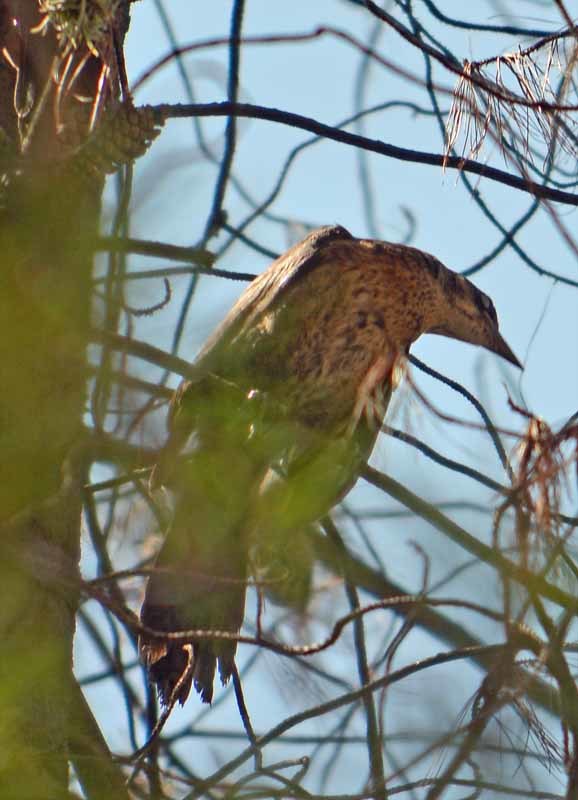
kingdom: Animalia
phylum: Chordata
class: Aves
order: Passeriformes
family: Icteridae
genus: Quiscalus
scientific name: Quiscalus mexicanus
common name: Great-tailed grackle
